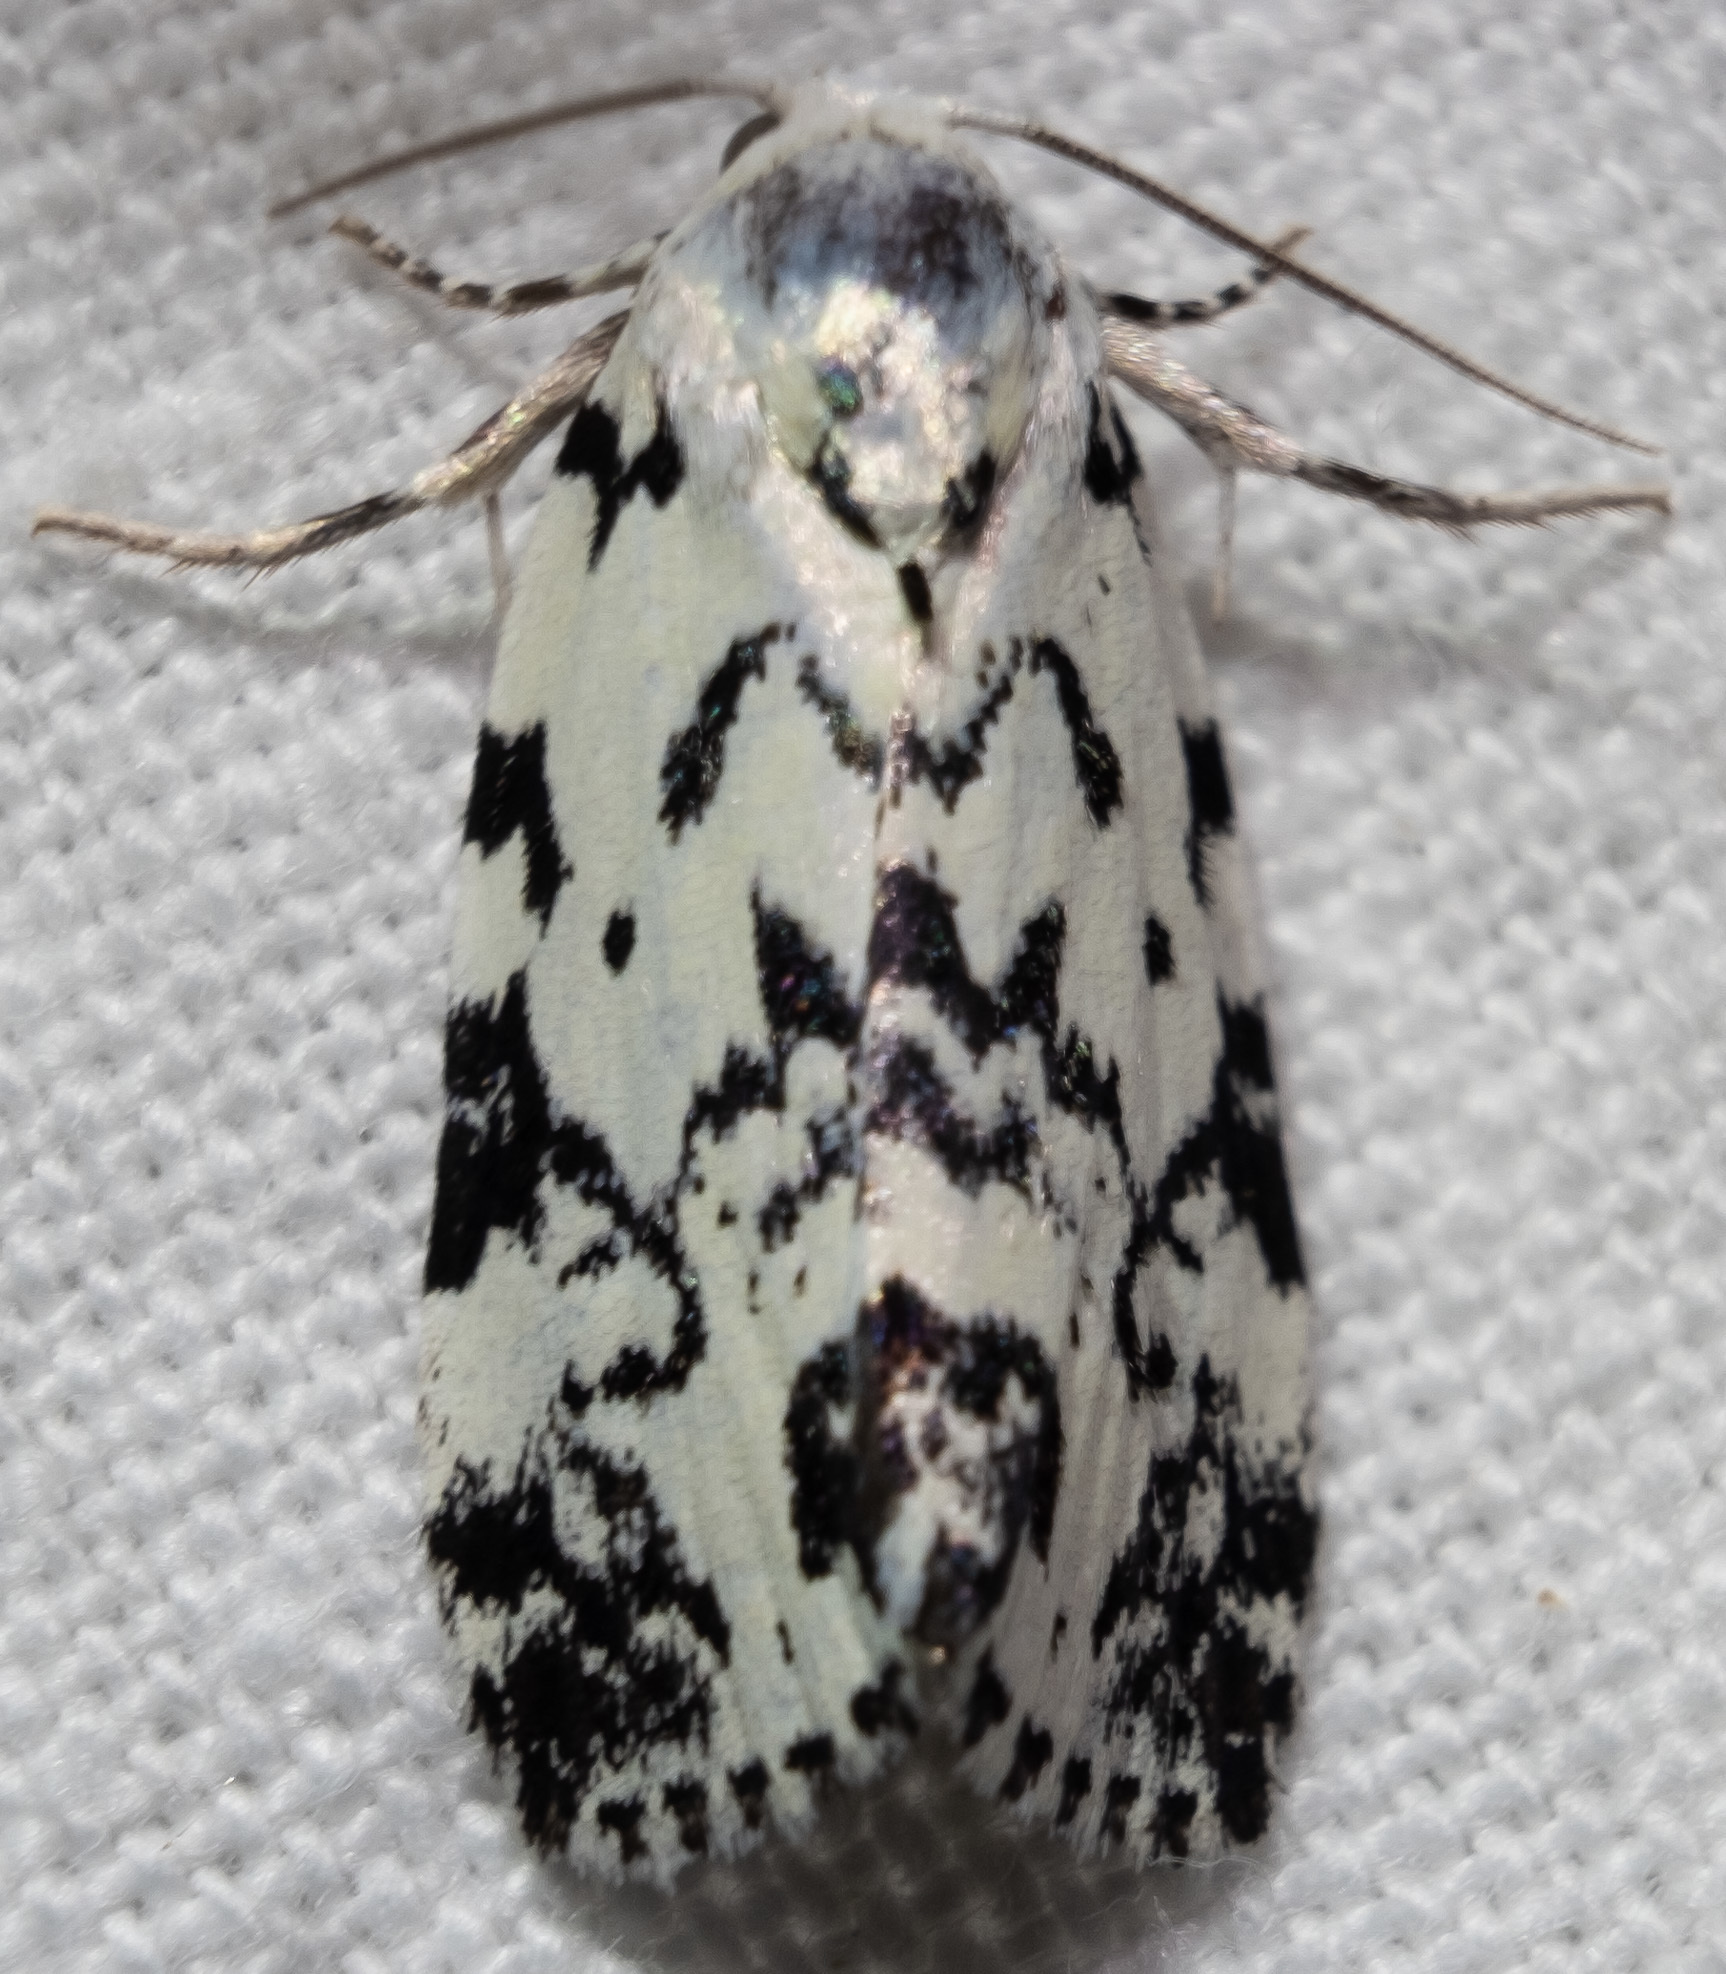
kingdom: Animalia
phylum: Arthropoda
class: Insecta
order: Lepidoptera
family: Noctuidae
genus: Polygrammate
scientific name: Polygrammate hebraeicum
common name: Hebrew moth
